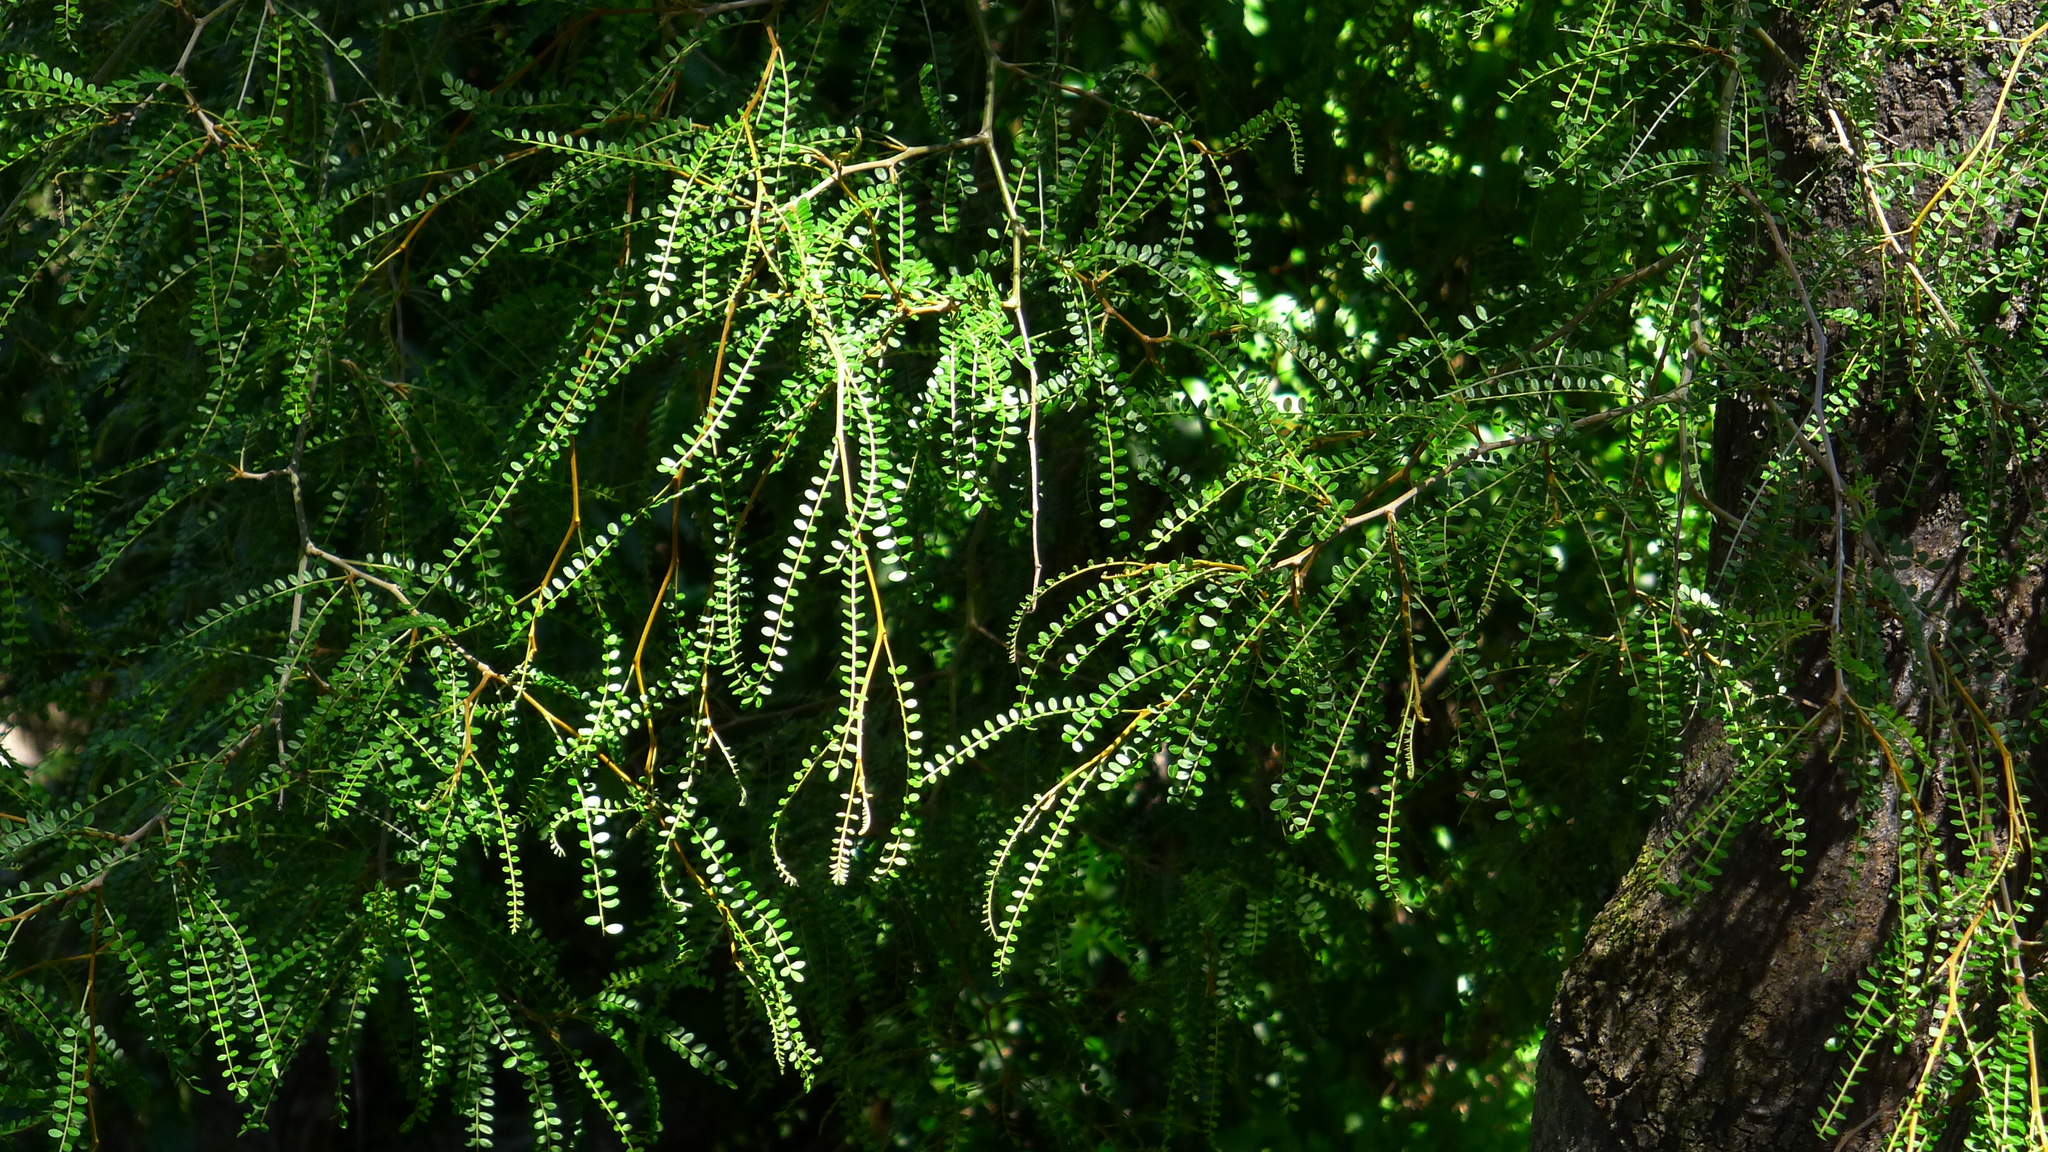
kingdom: Plantae
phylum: Tracheophyta
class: Magnoliopsida
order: Fabales
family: Fabaceae
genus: Sophora
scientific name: Sophora longicarinata
